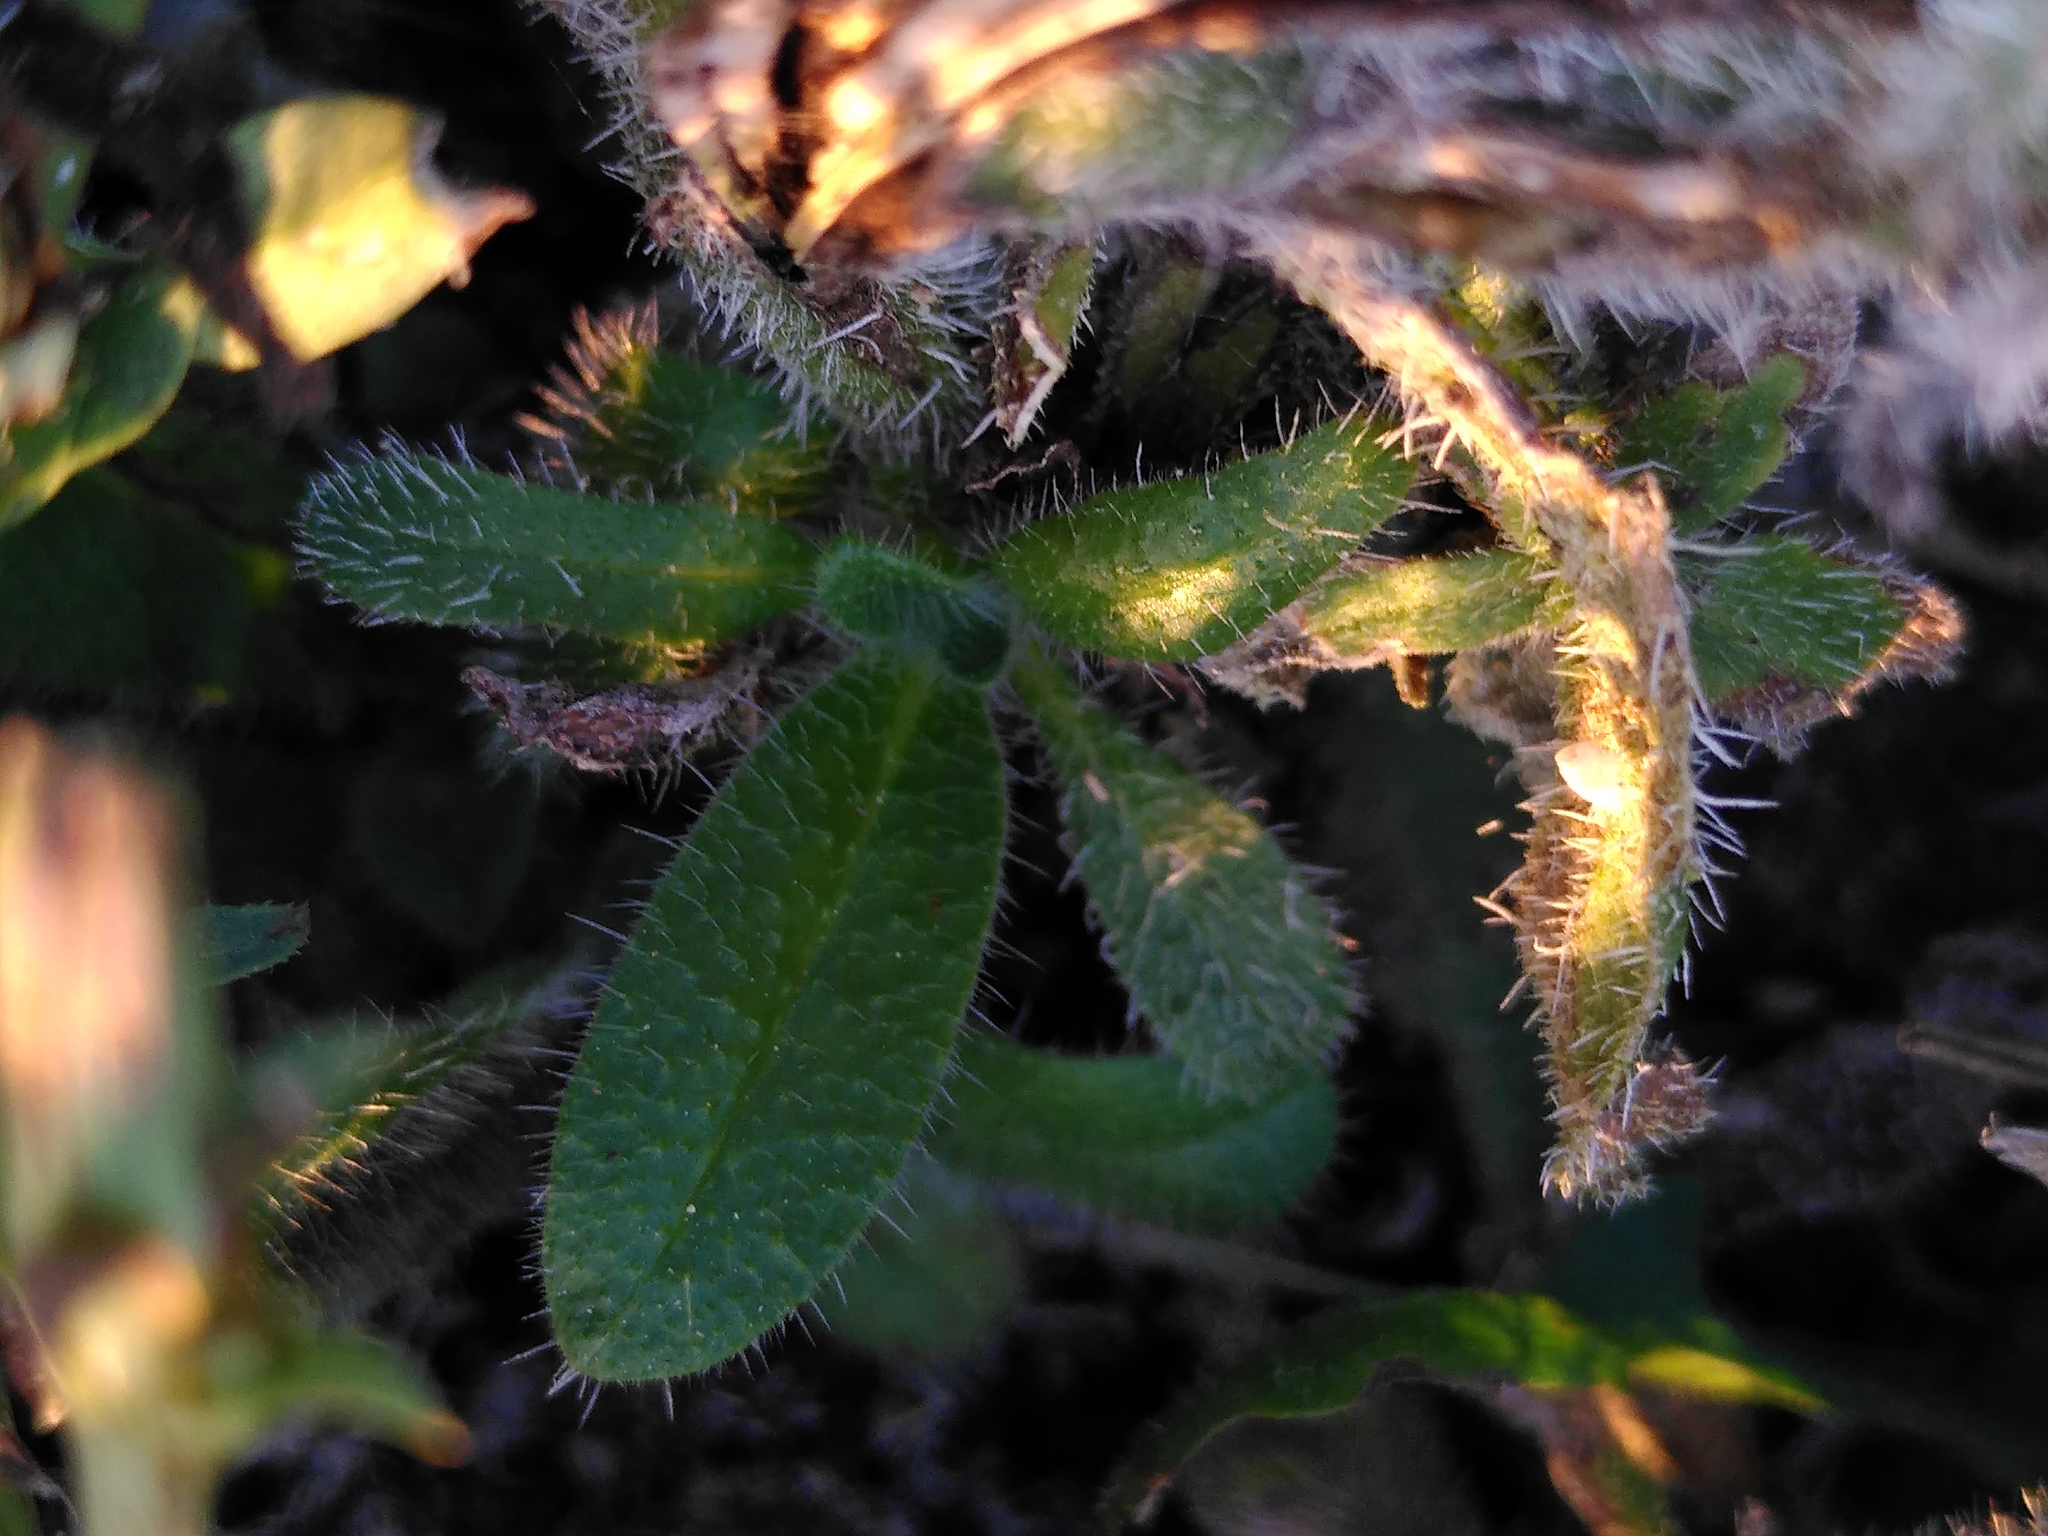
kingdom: Plantae
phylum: Tracheophyta
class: Magnoliopsida
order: Boraginales
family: Boraginaceae
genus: Echium
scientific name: Echium italicum
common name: Italian viper's bugloss
